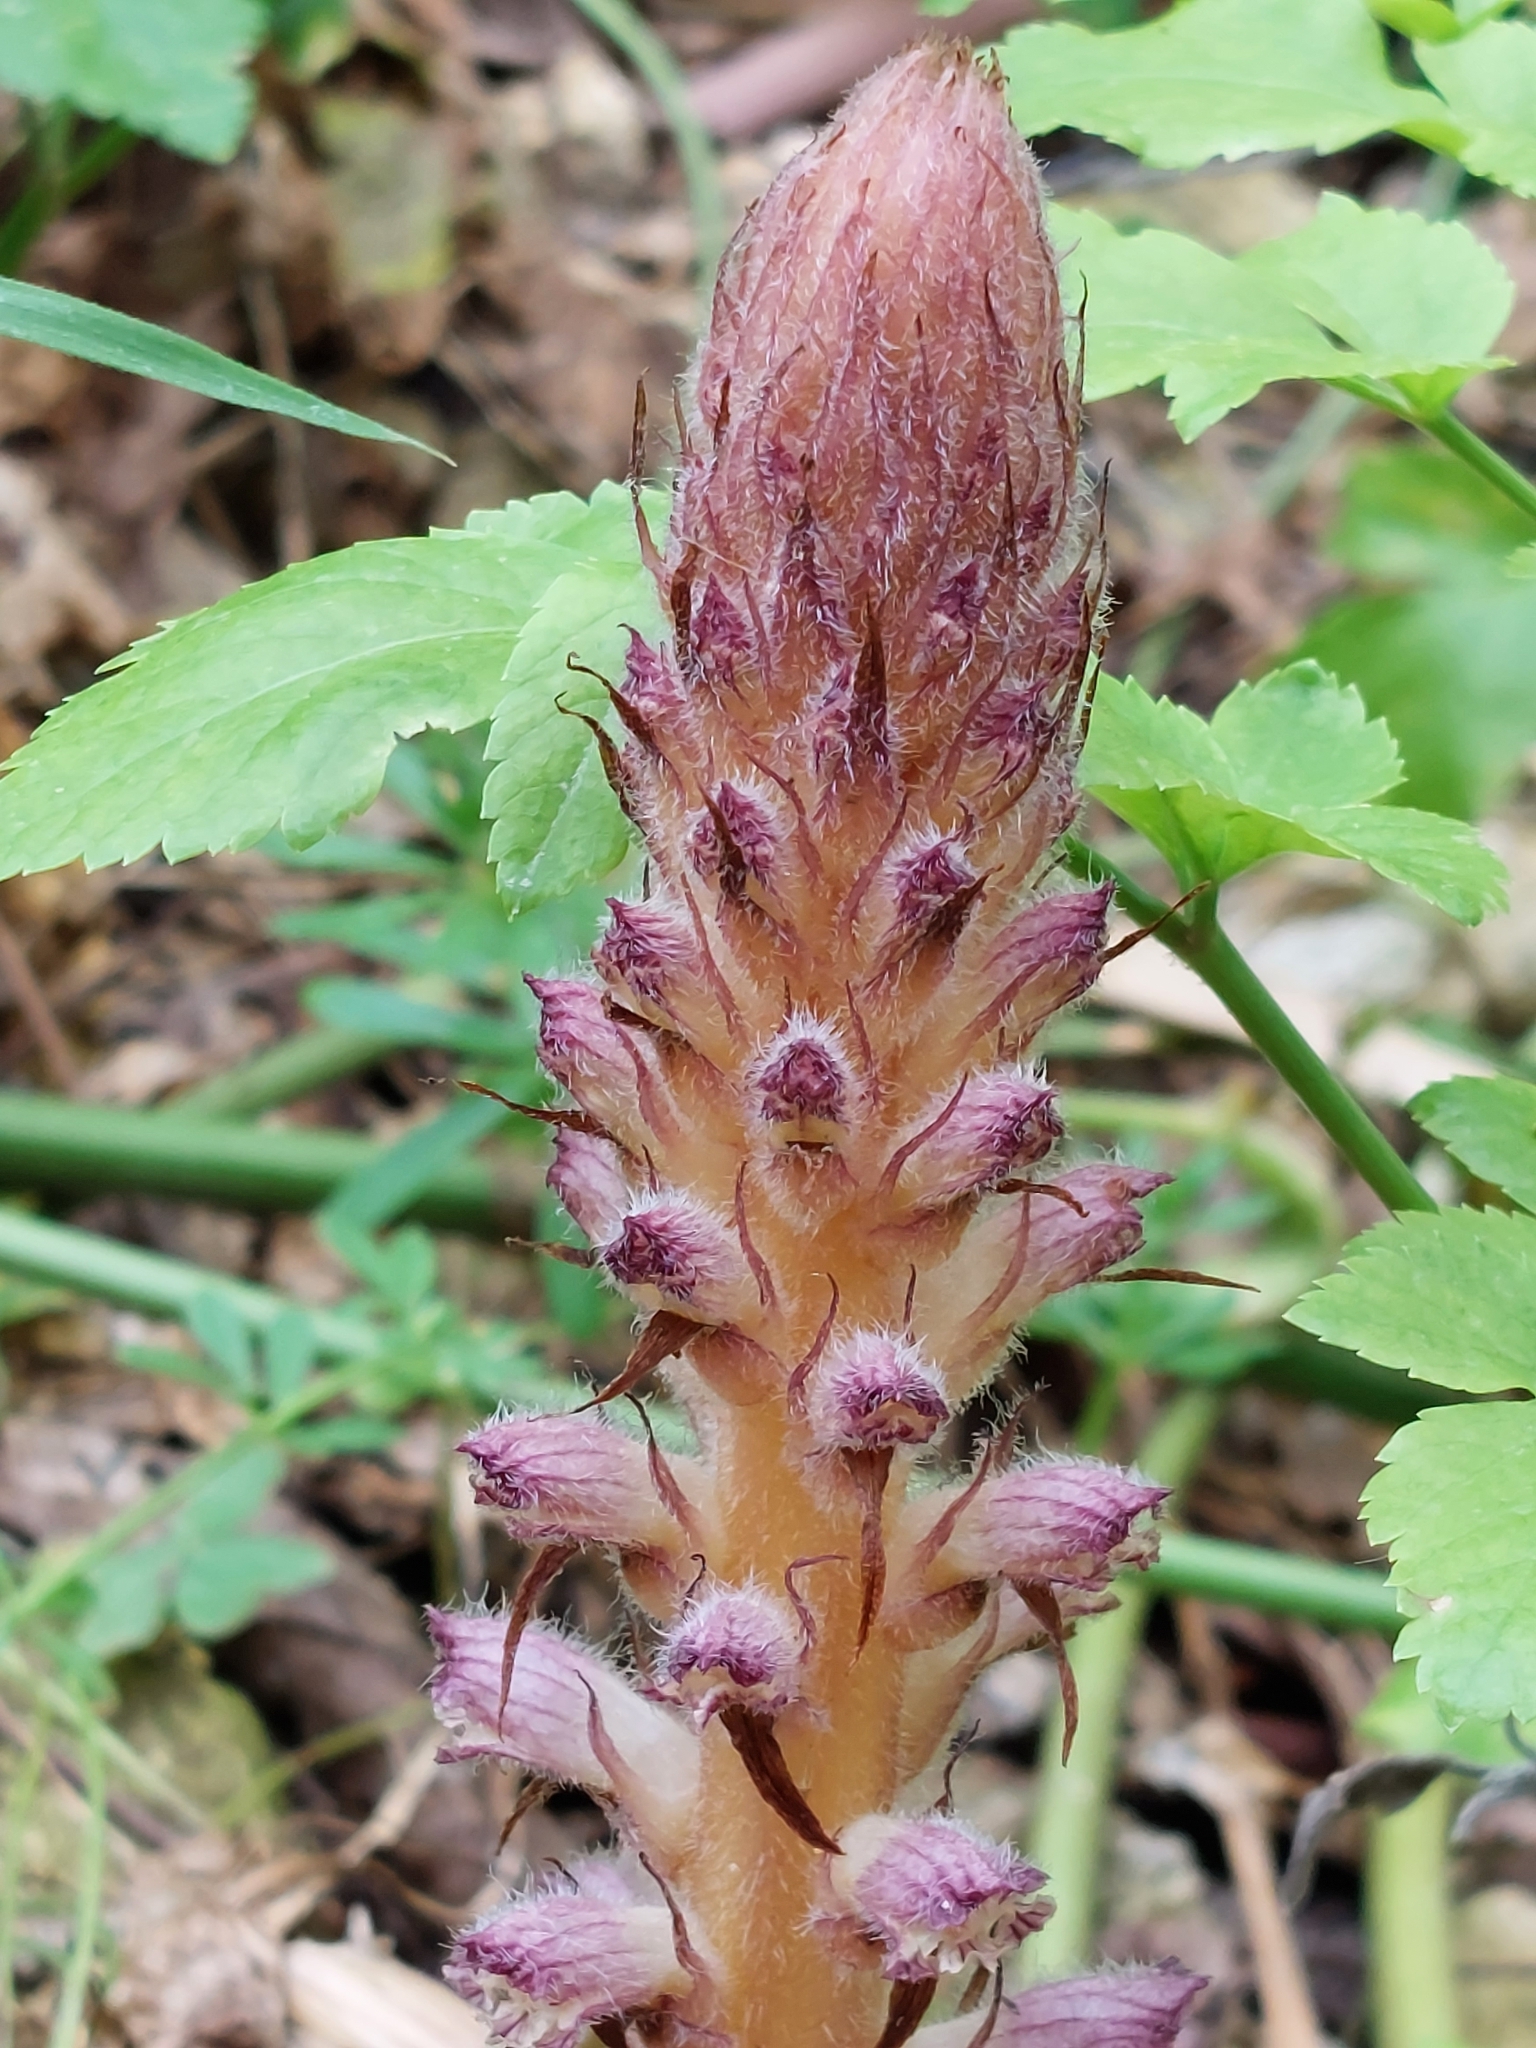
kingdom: Plantae
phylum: Tracheophyta
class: Magnoliopsida
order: Lamiales
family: Orobanchaceae
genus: Orobanche
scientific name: Orobanche pubescens
